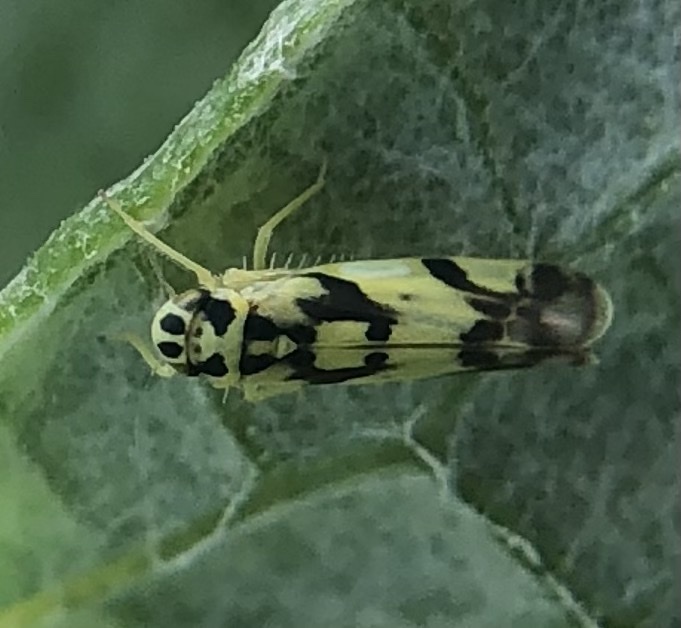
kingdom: Animalia
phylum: Arthropoda
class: Insecta
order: Hemiptera
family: Cicadellidae
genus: Eupteryx
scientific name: Eupteryx aurata
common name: Leafhopper
